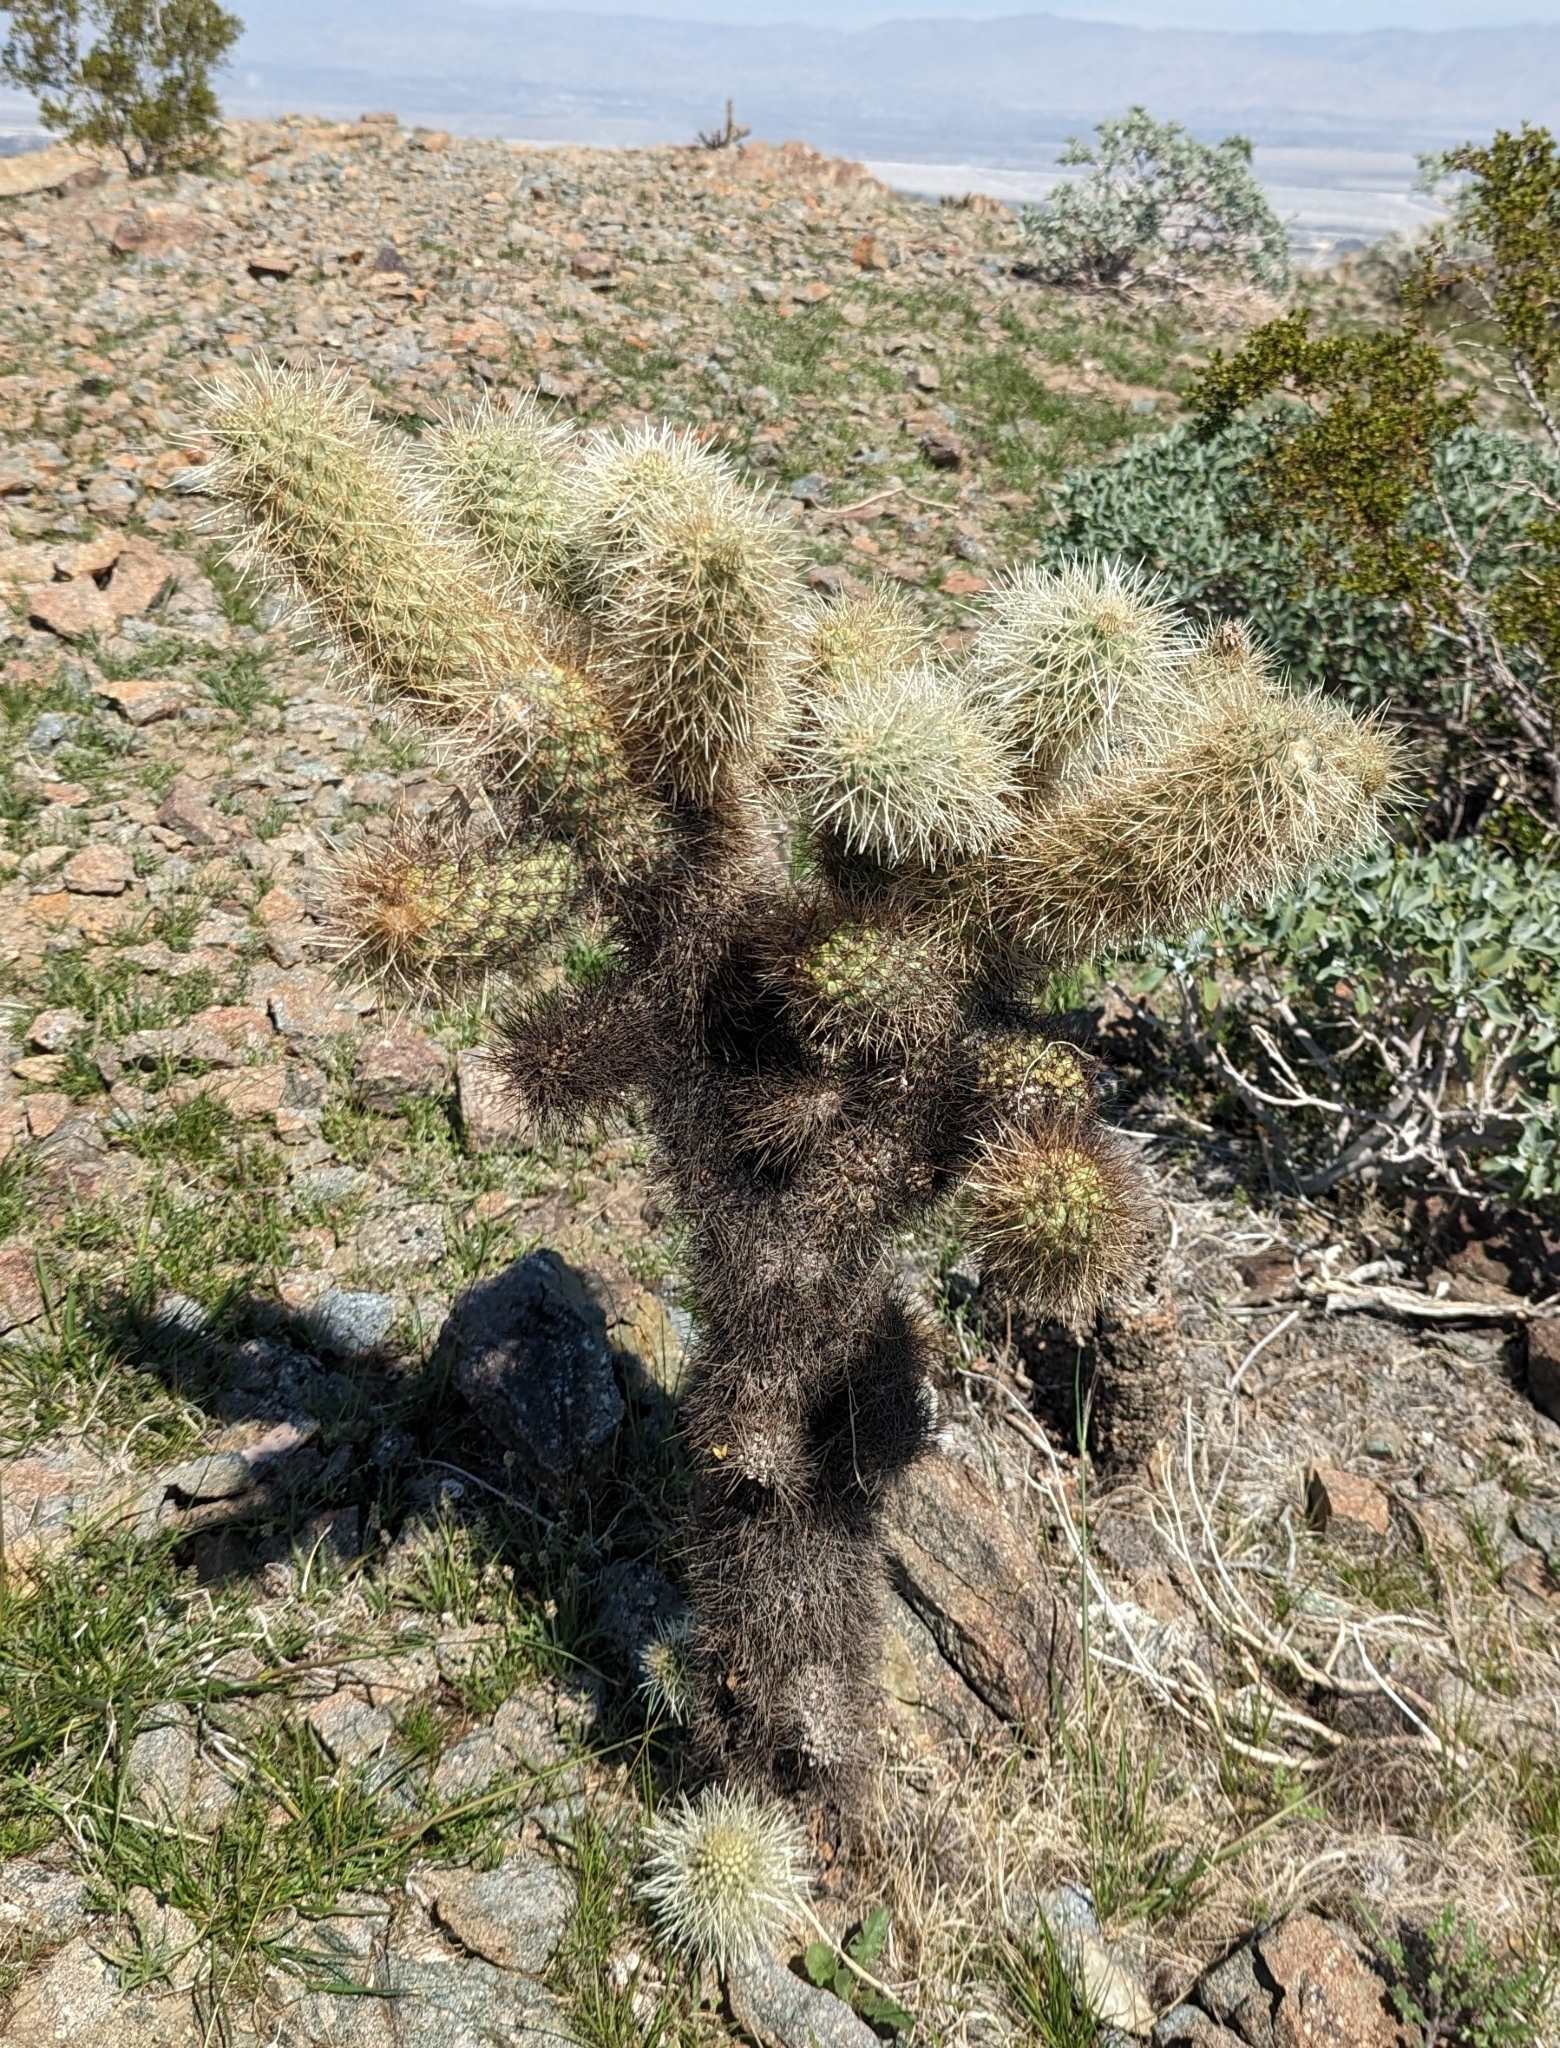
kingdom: Plantae
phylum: Tracheophyta
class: Magnoliopsida
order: Caryophyllales
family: Cactaceae
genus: Cylindropuntia
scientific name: Cylindropuntia fosbergii
